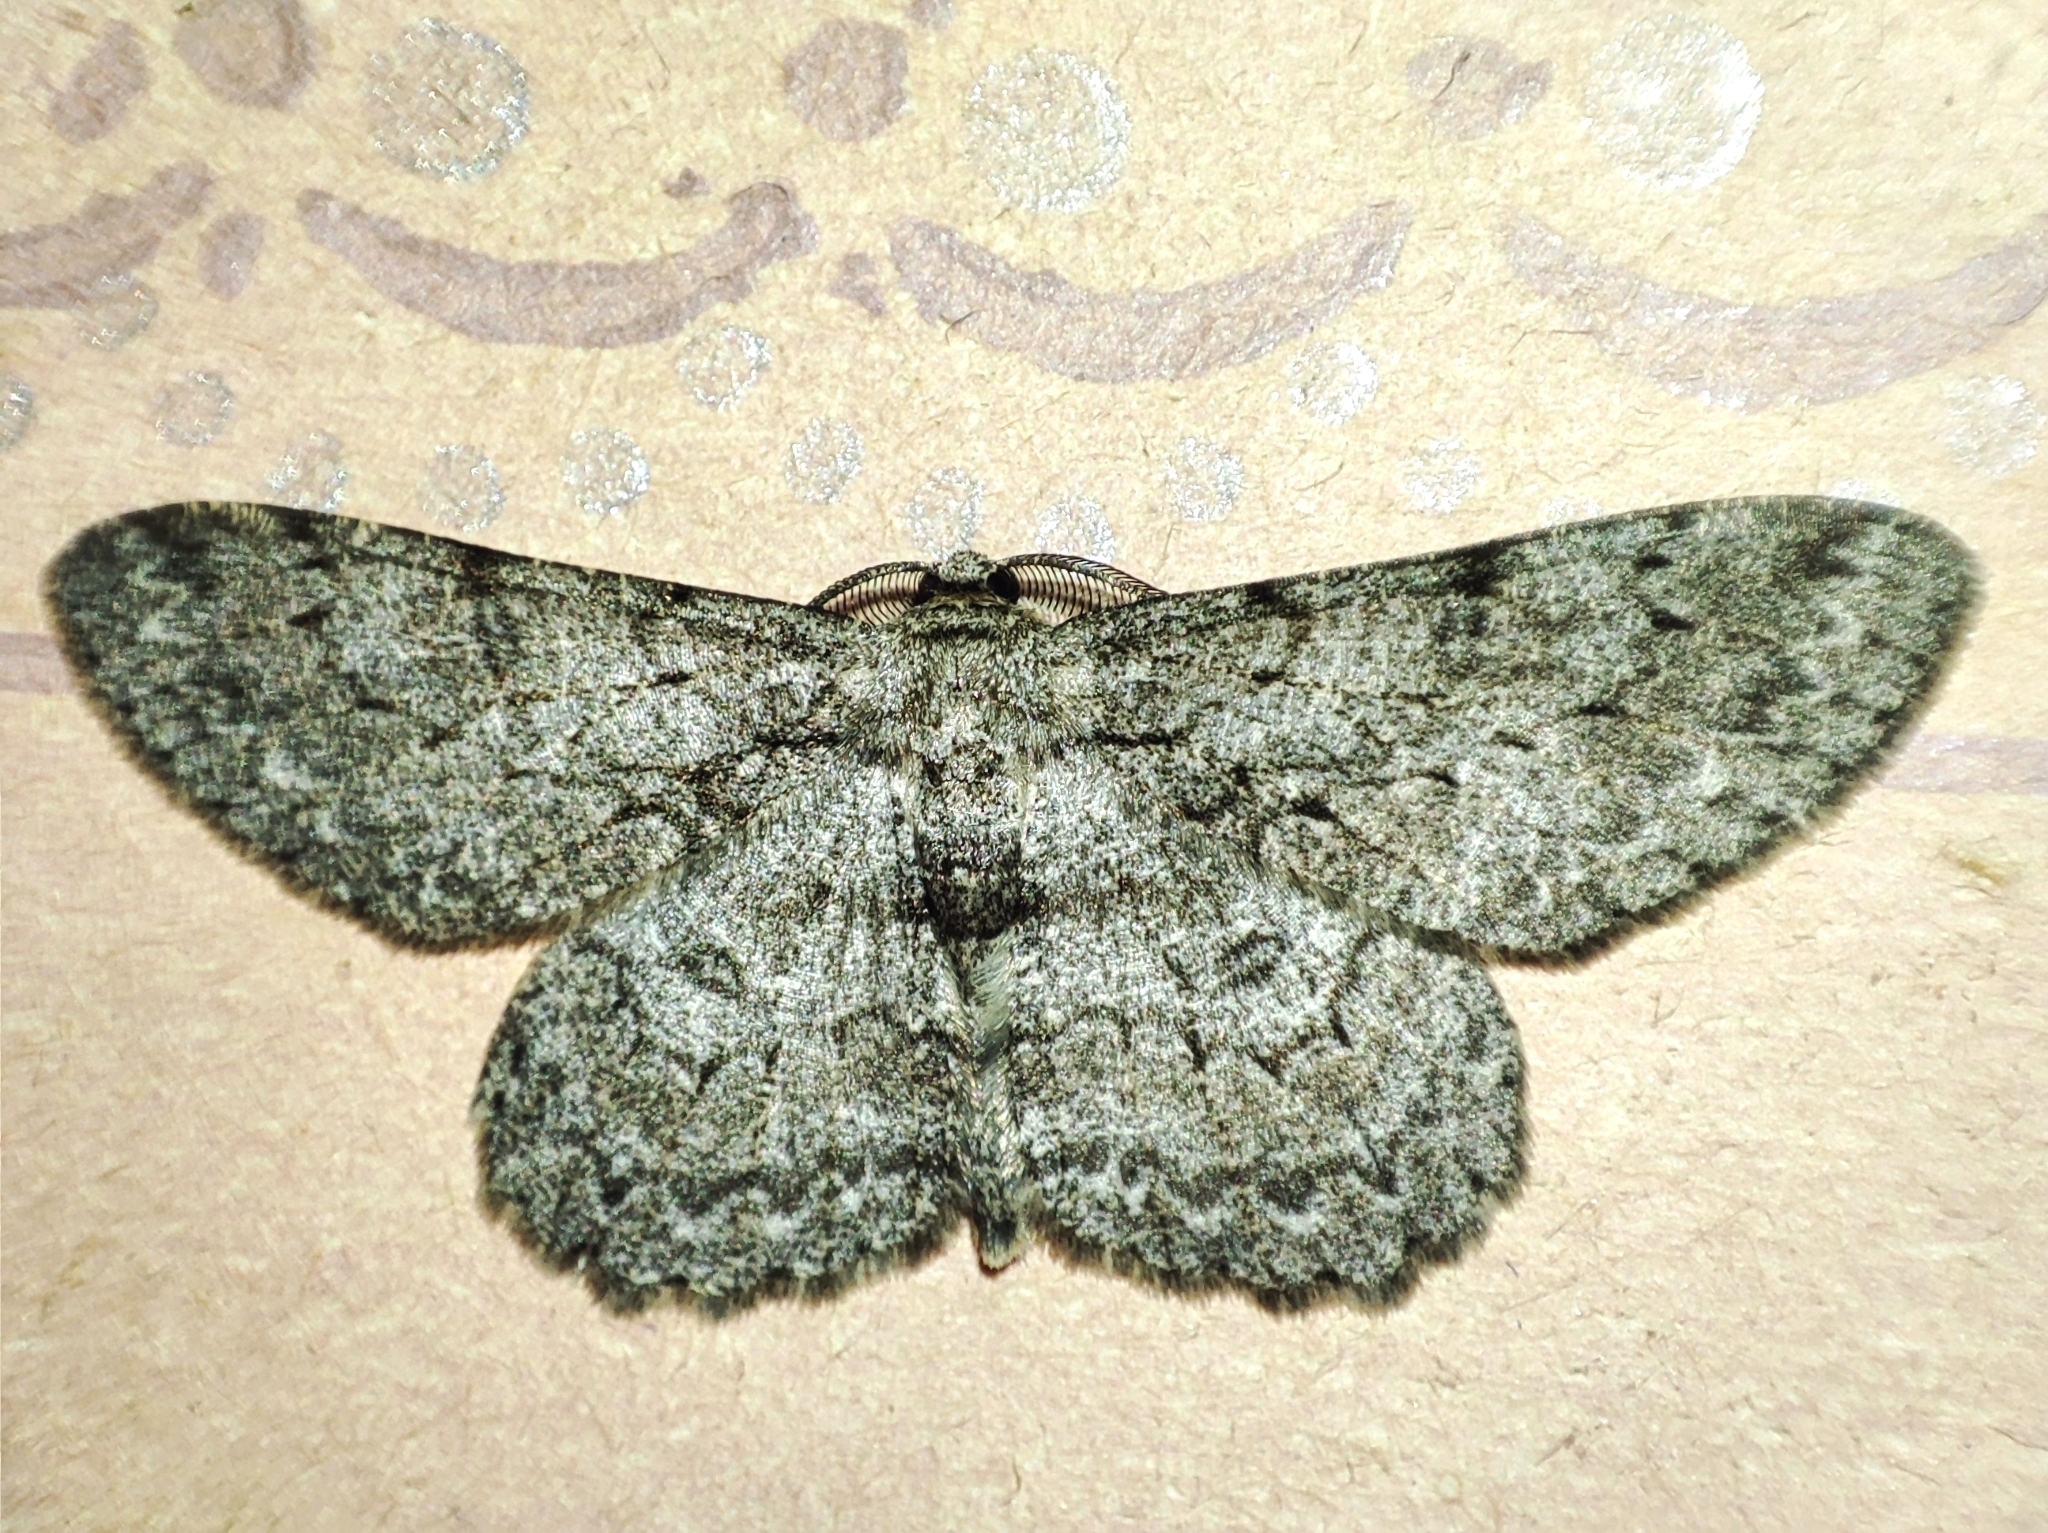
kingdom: Animalia
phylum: Arthropoda
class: Insecta
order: Lepidoptera
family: Geometridae
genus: Hypomecis
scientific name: Hypomecis punctinalis
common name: Pale oak beauty
